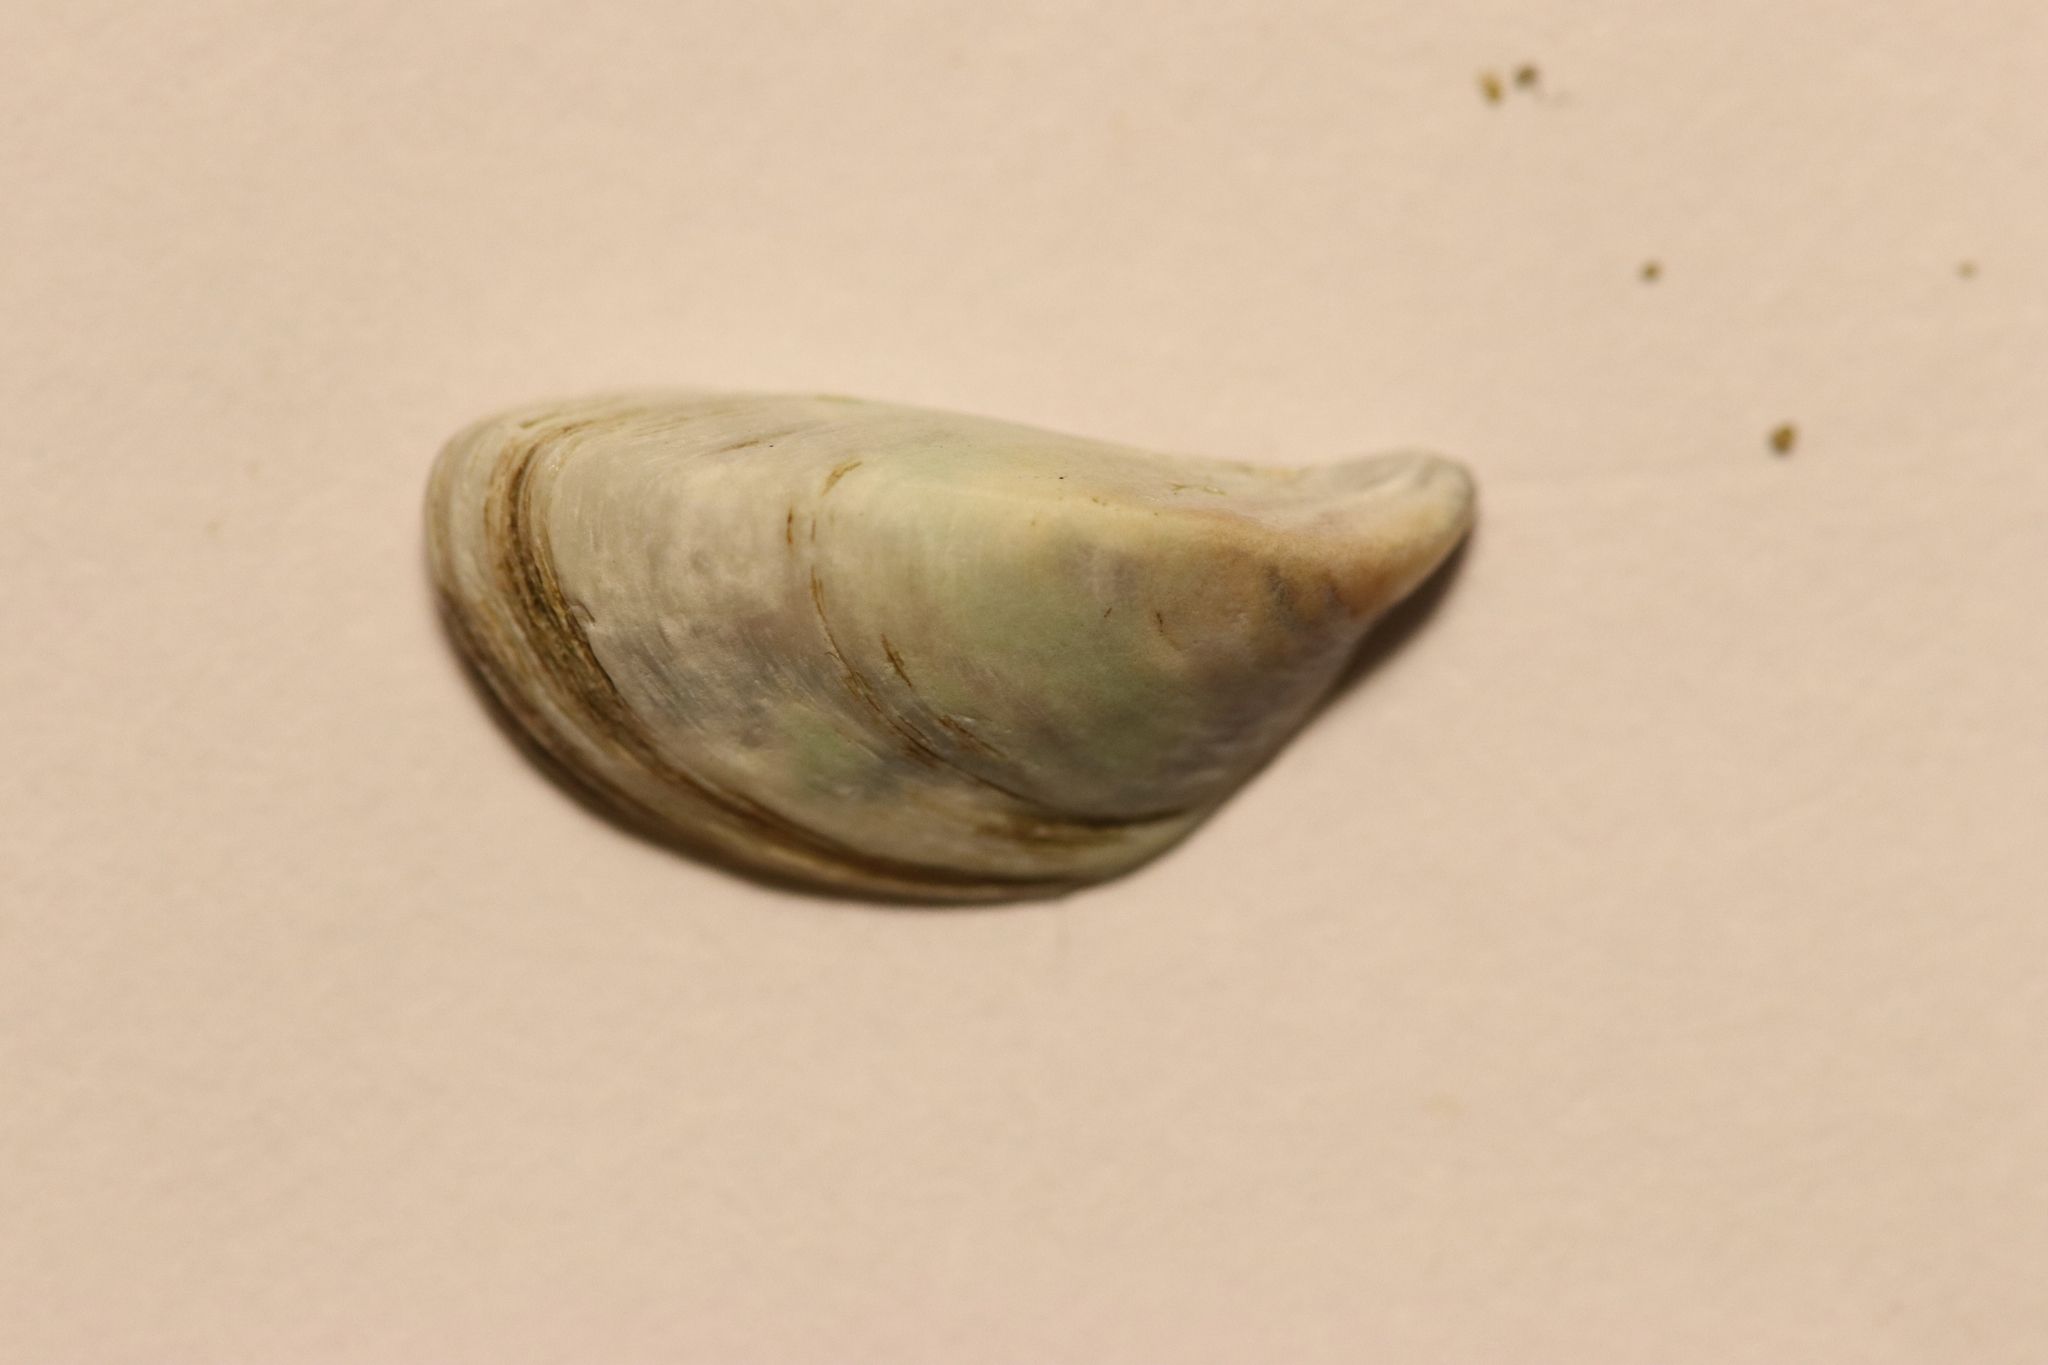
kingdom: Animalia
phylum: Mollusca
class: Bivalvia
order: Myida
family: Dreissenidae
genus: Dreissena
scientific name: Dreissena polymorpha
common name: Zebra mussel
